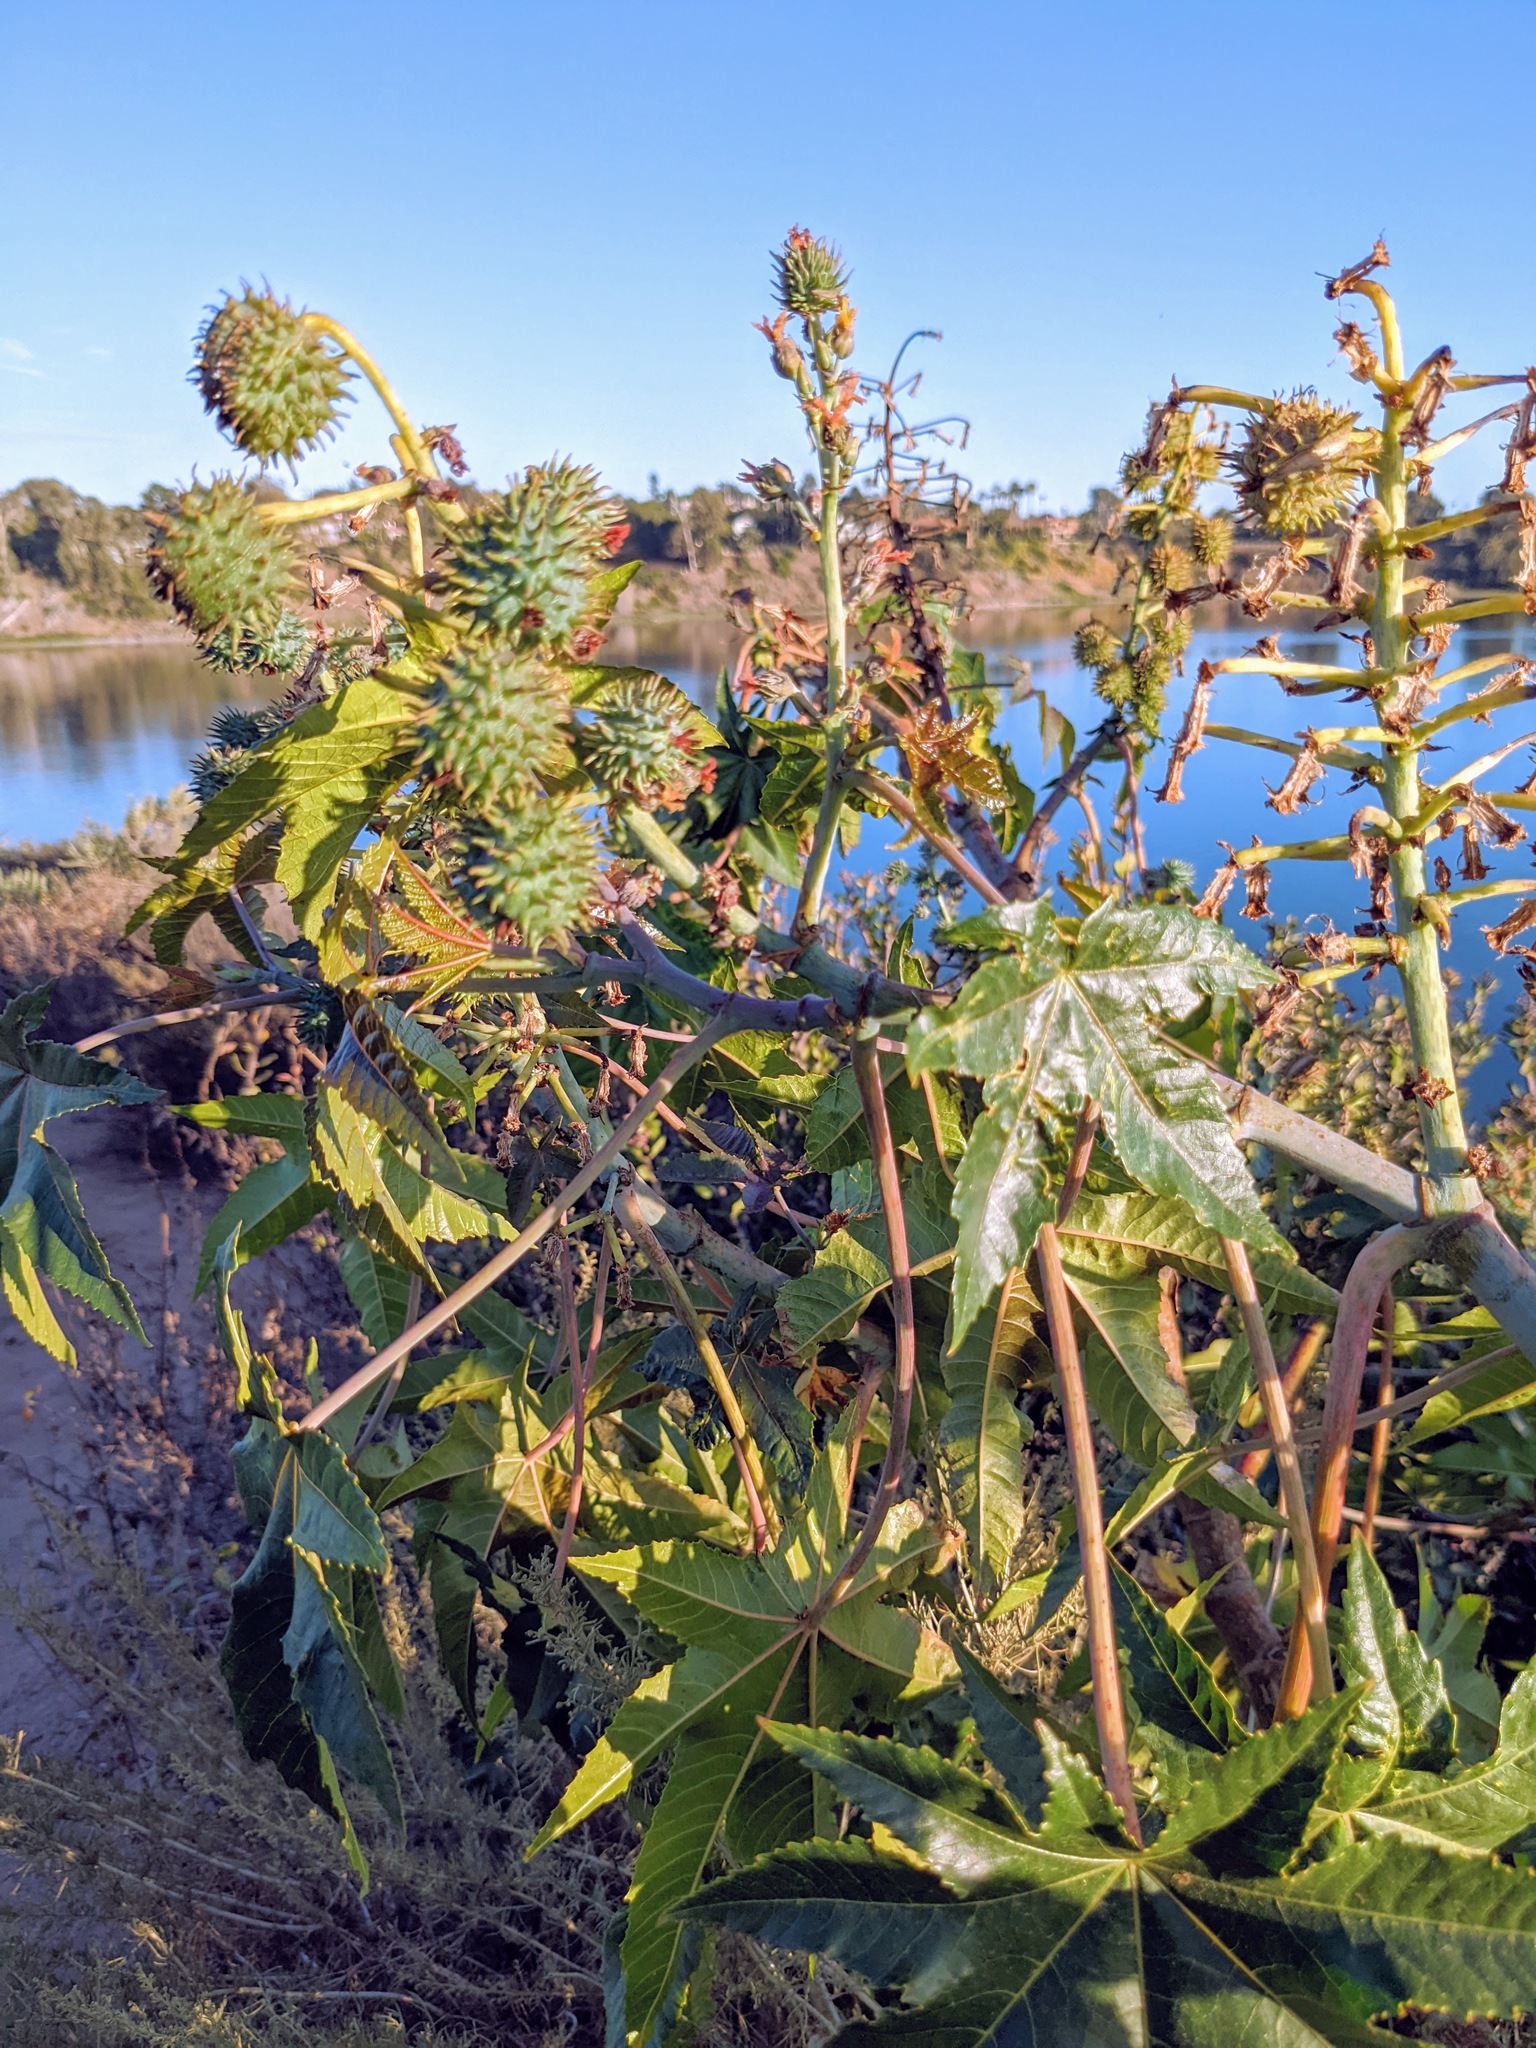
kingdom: Plantae
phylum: Tracheophyta
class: Magnoliopsida
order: Malpighiales
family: Euphorbiaceae
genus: Ricinus
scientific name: Ricinus communis
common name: Castor-oil-plant
